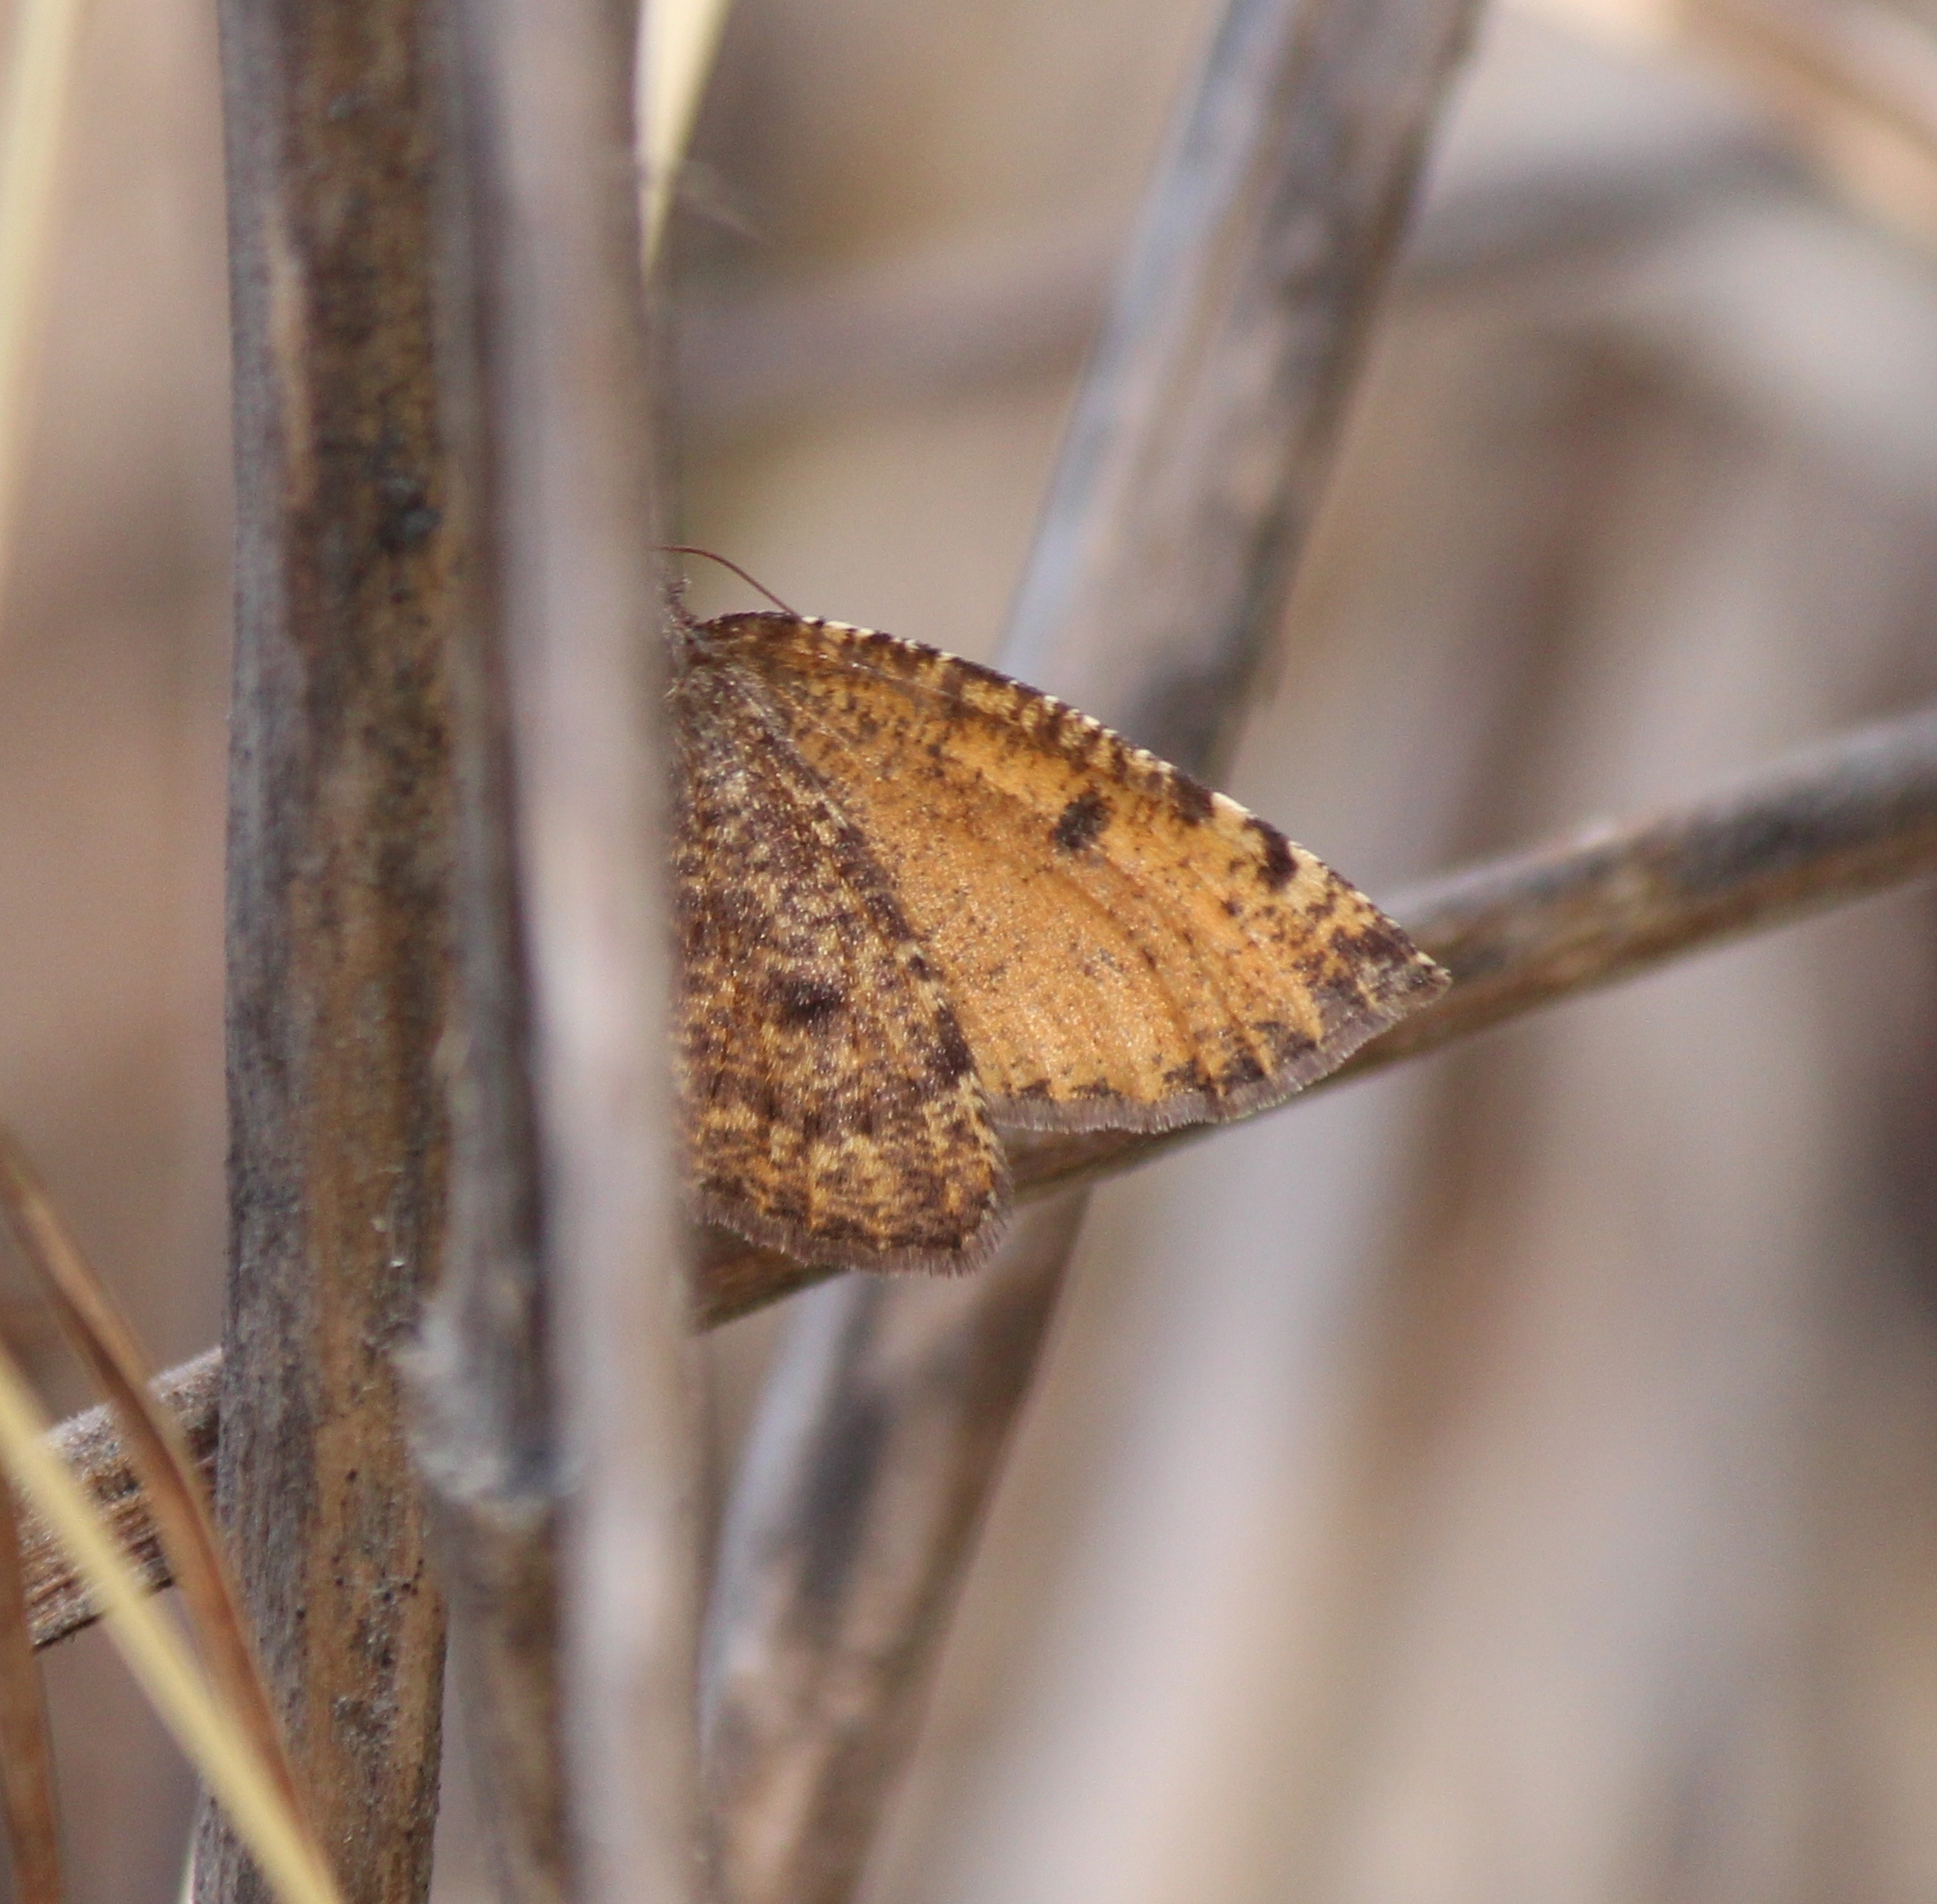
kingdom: Animalia
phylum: Arthropoda
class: Insecta
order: Lepidoptera
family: Geometridae
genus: Epirranthis
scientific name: Epirranthis diversata
